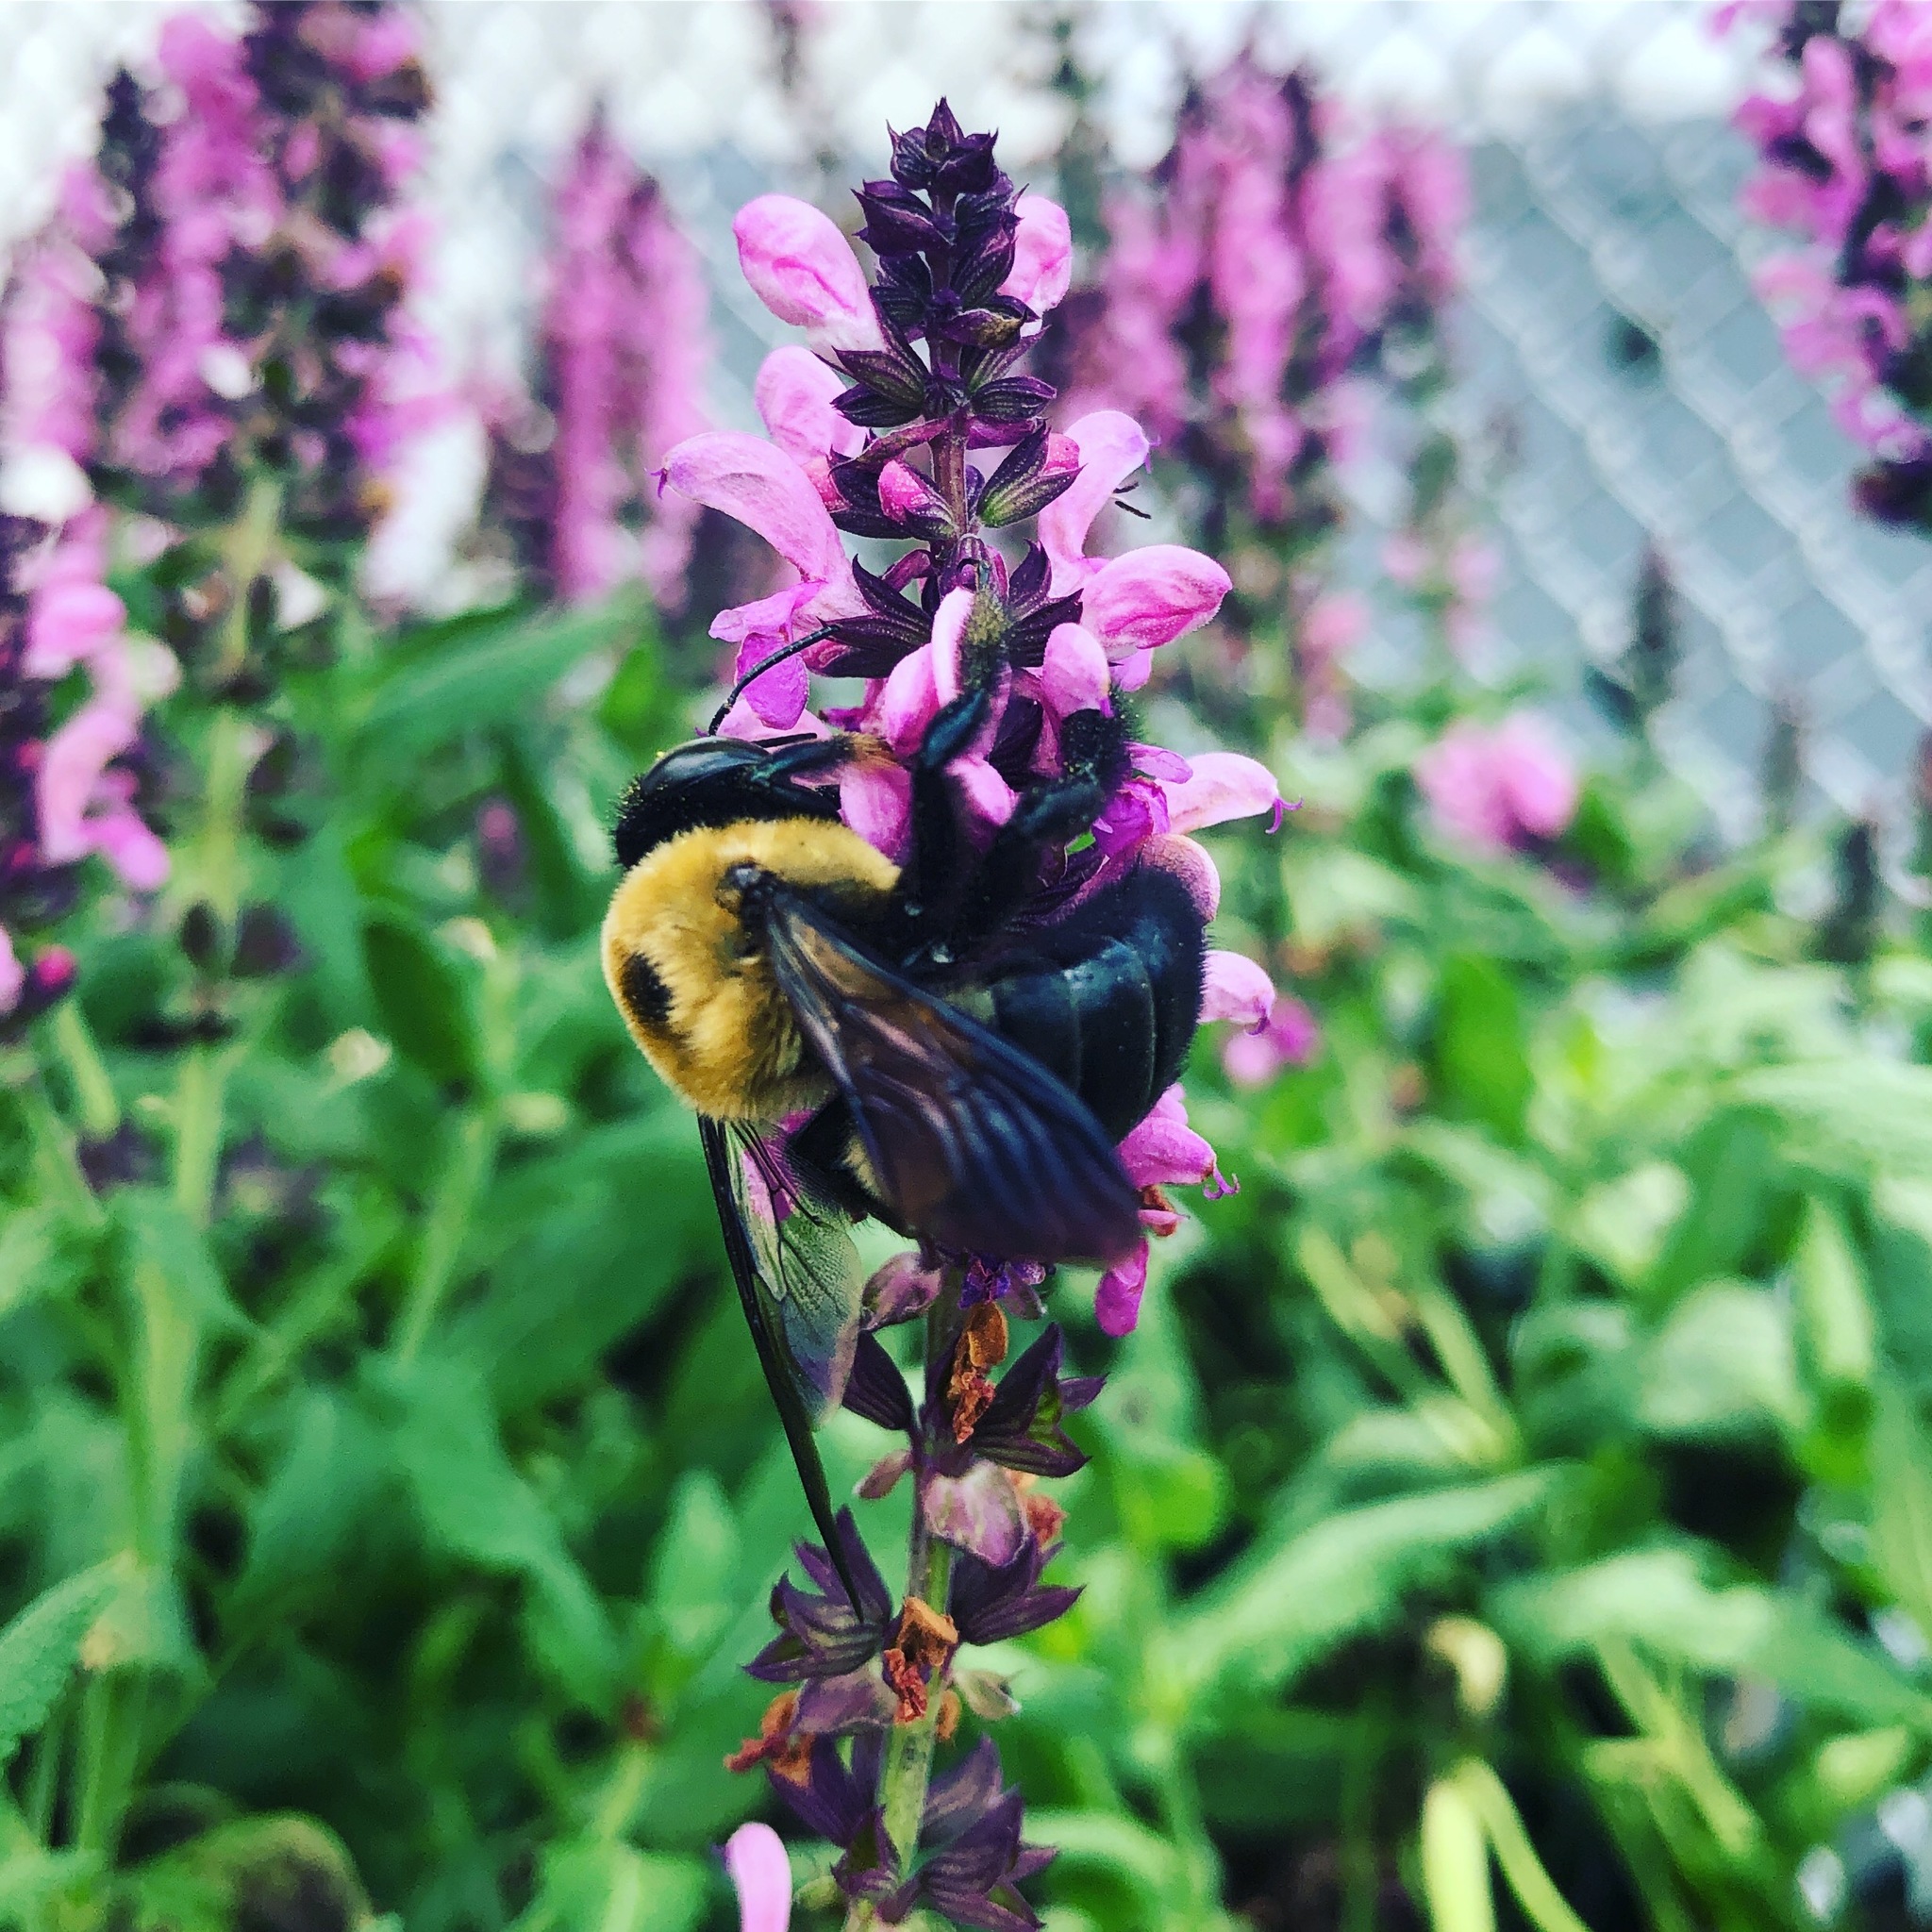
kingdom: Animalia
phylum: Arthropoda
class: Insecta
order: Hymenoptera
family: Apidae
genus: Xylocopa
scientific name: Xylocopa virginica
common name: Carpenter bee
